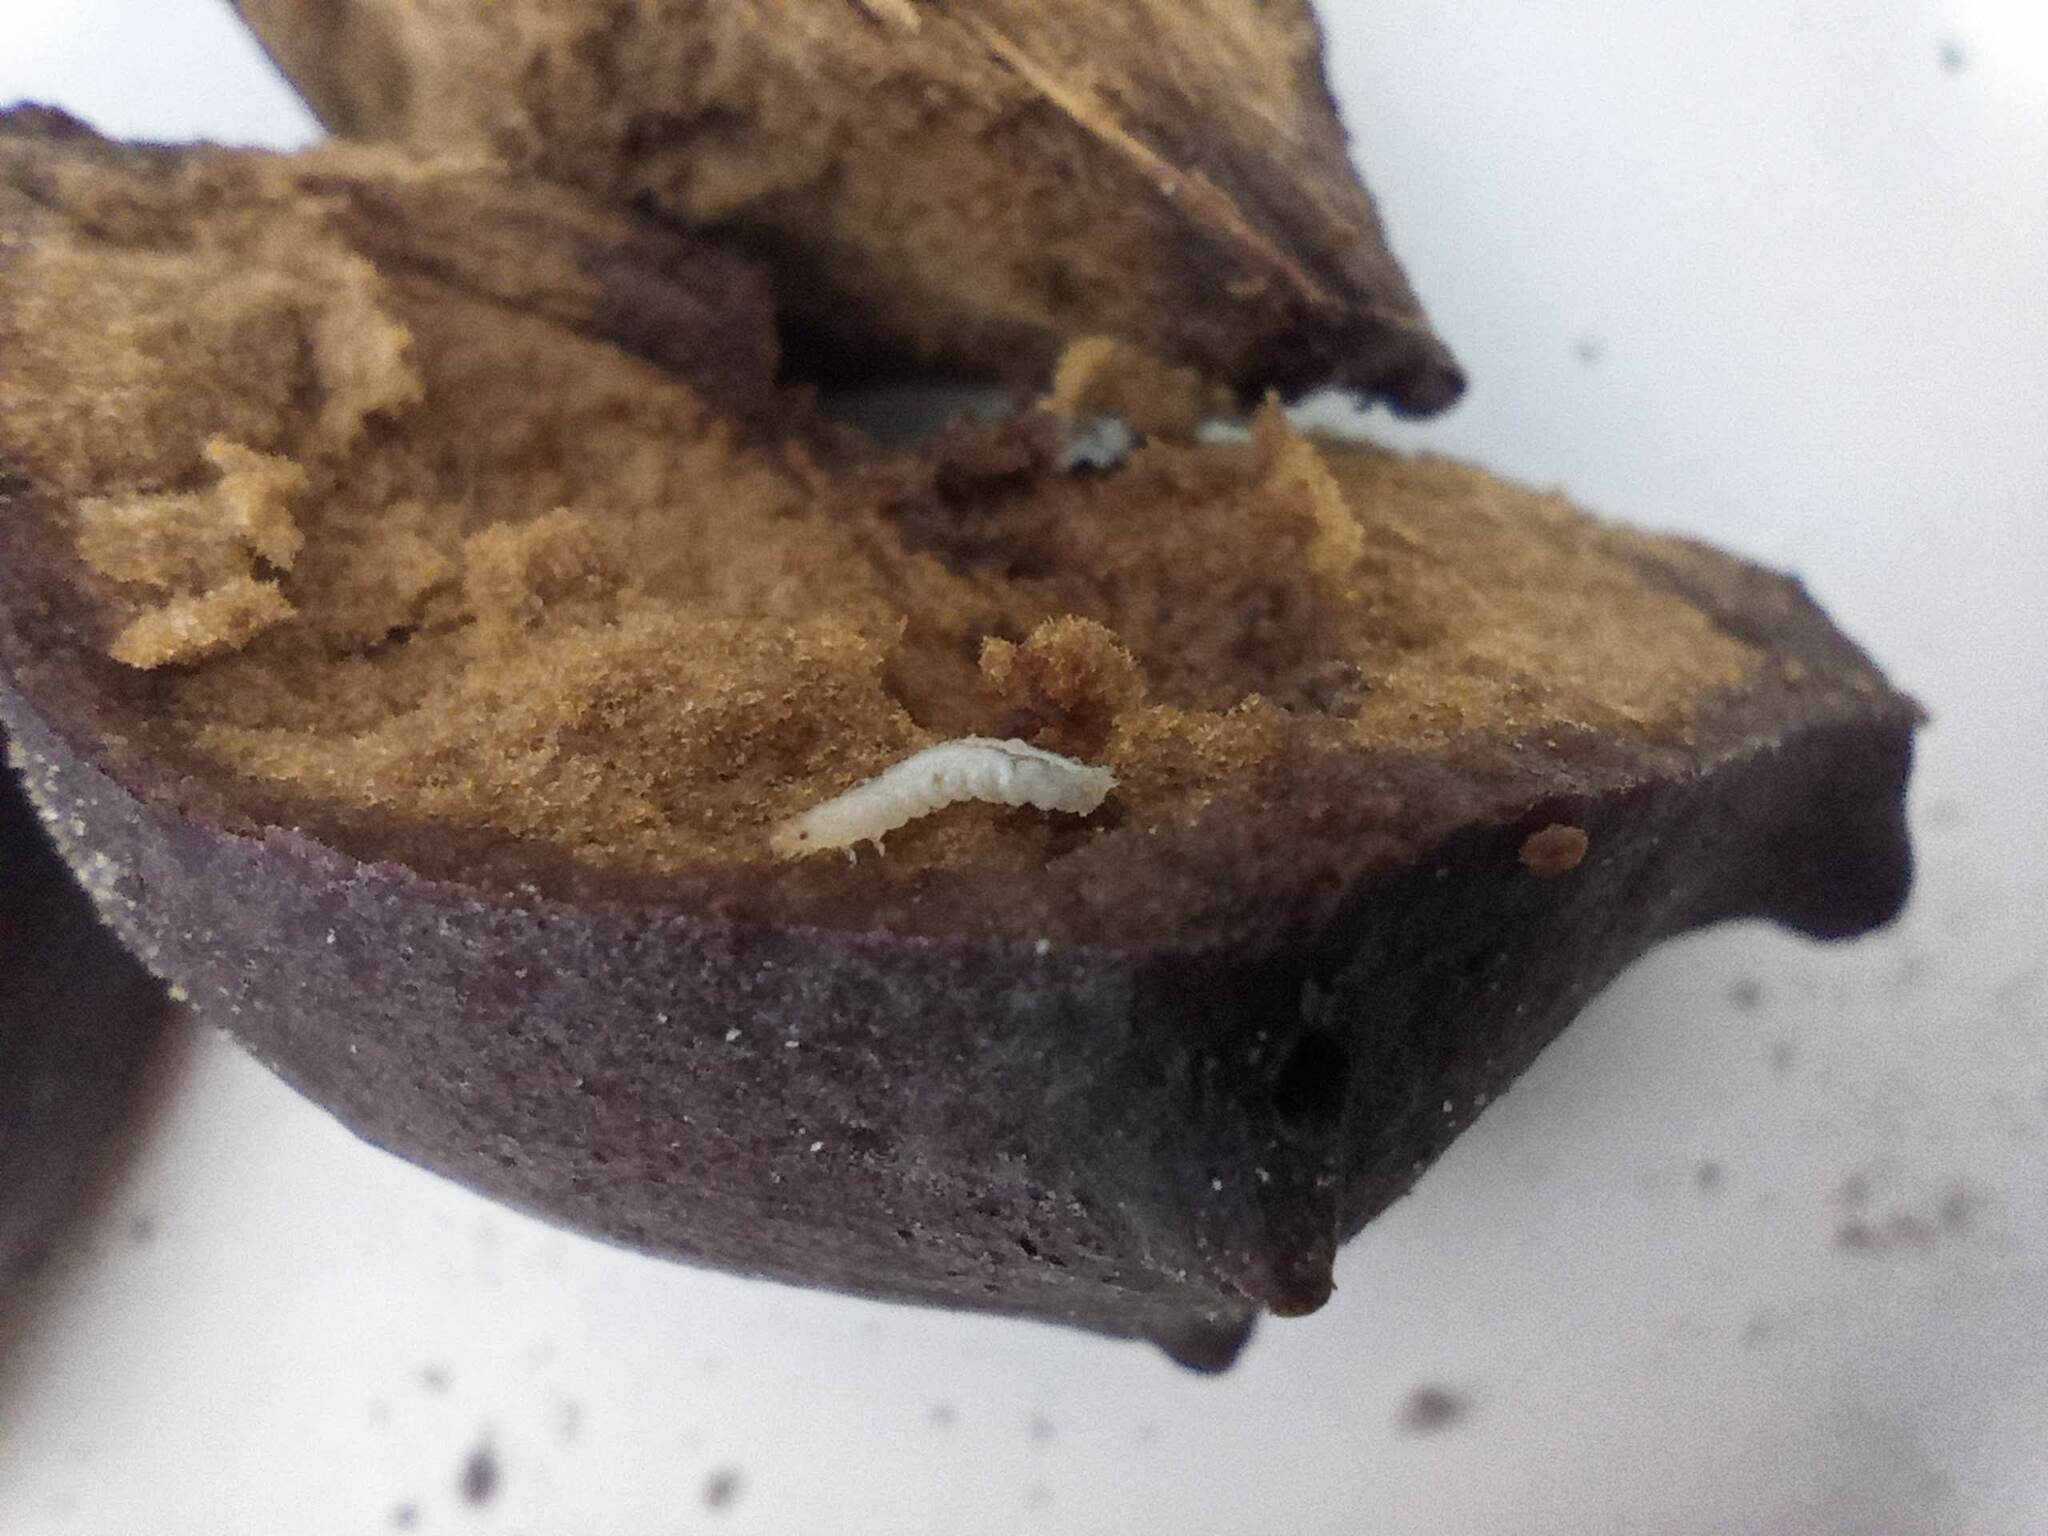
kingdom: Animalia
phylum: Arthropoda
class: Insecta
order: Hymenoptera
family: Cynipidae
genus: Andricus
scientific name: Andricus quercustozae
